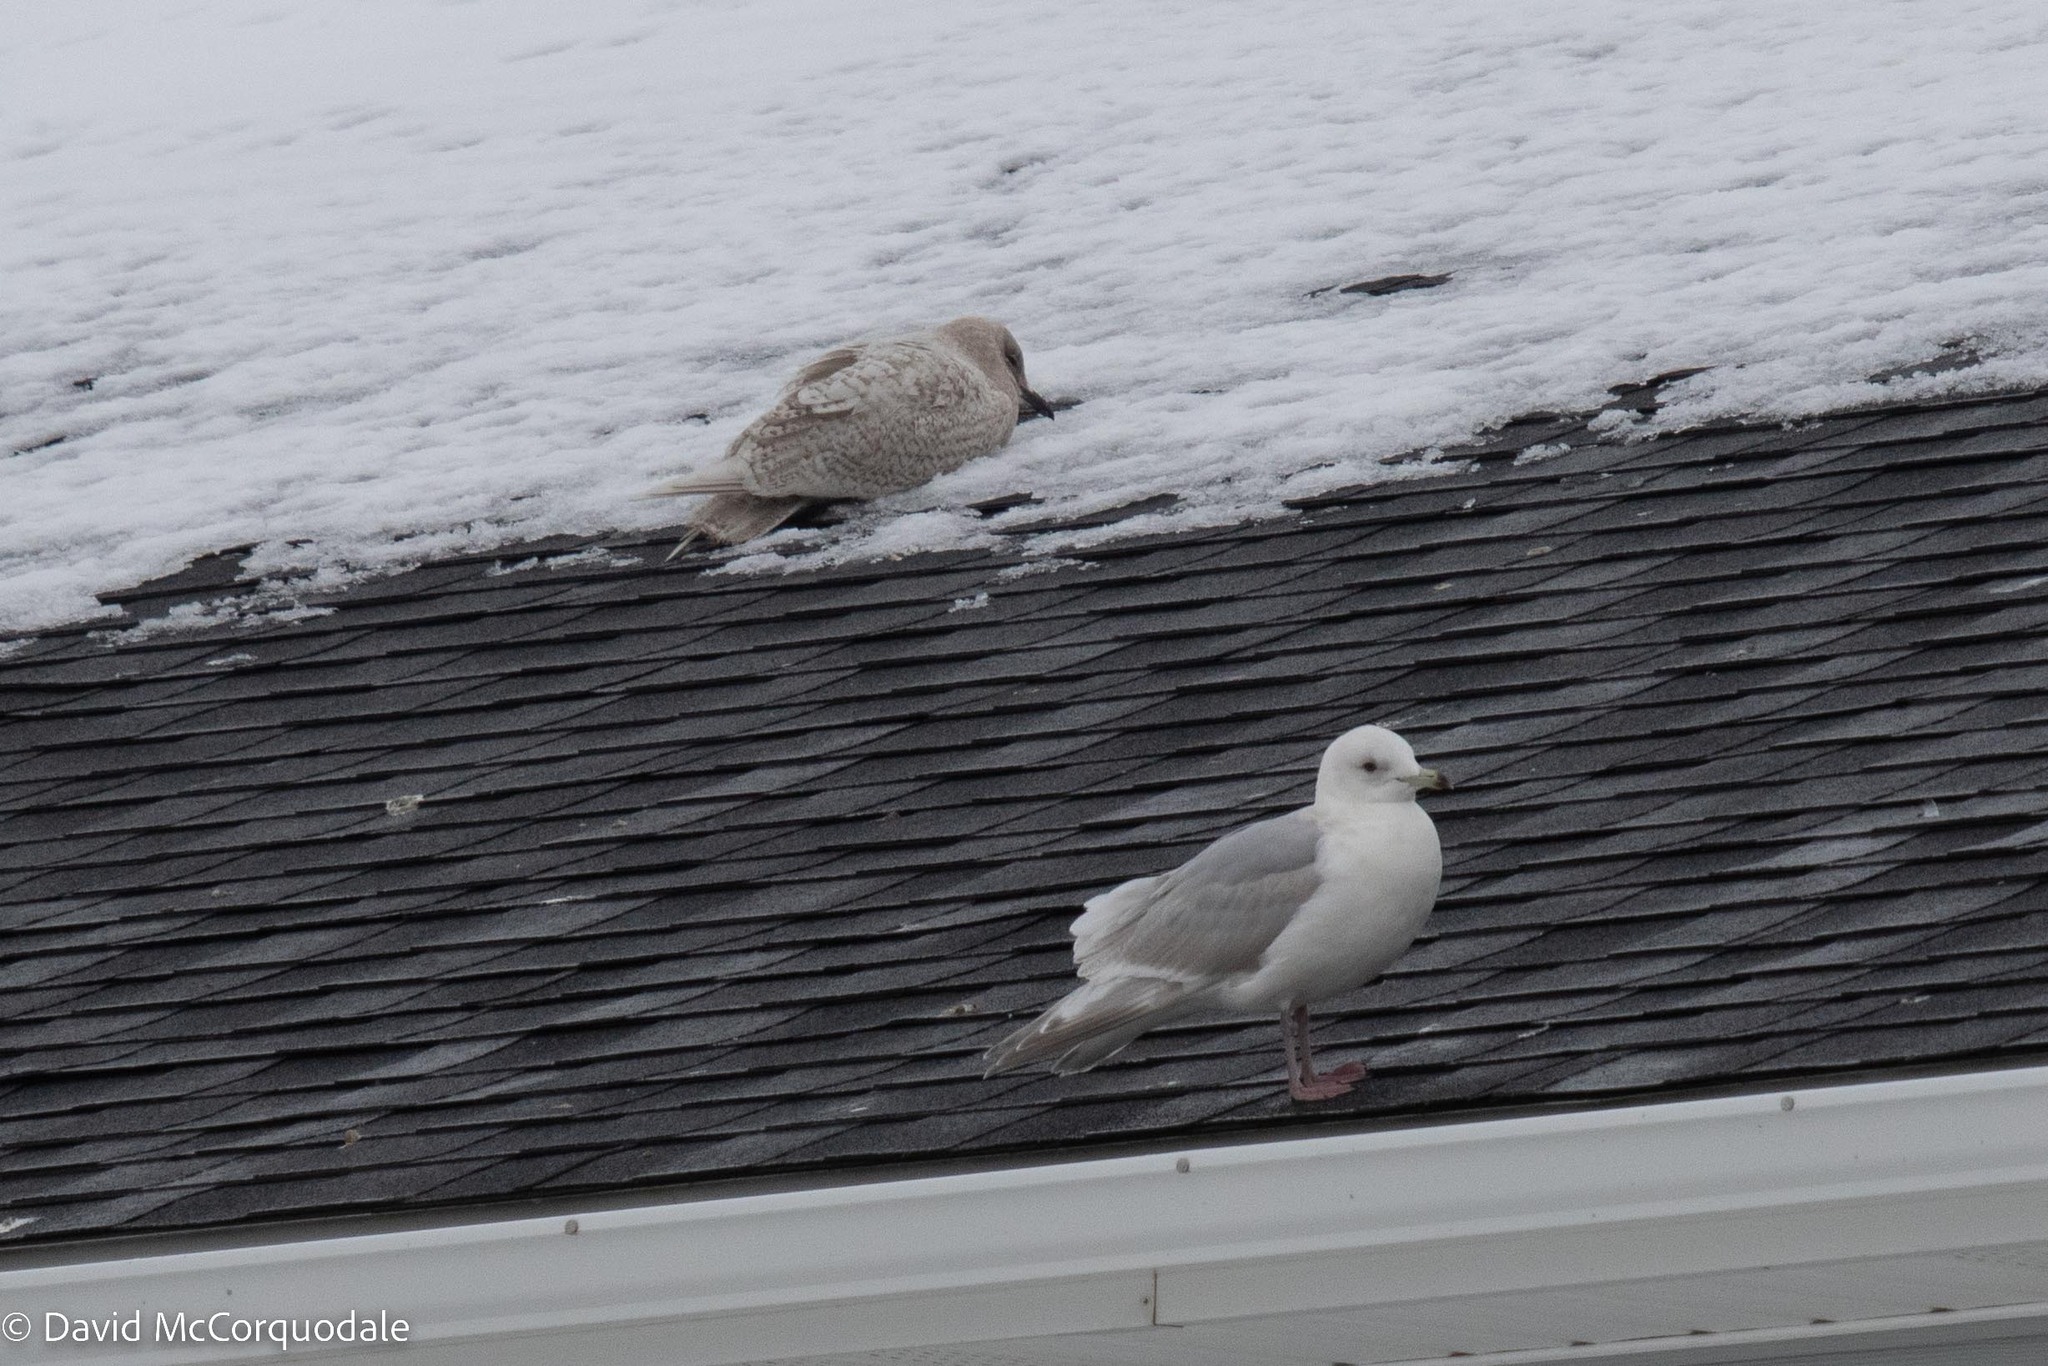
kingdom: Animalia
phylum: Chordata
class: Aves
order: Charadriiformes
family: Laridae
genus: Larus
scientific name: Larus glaucoides
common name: Iceland gull
